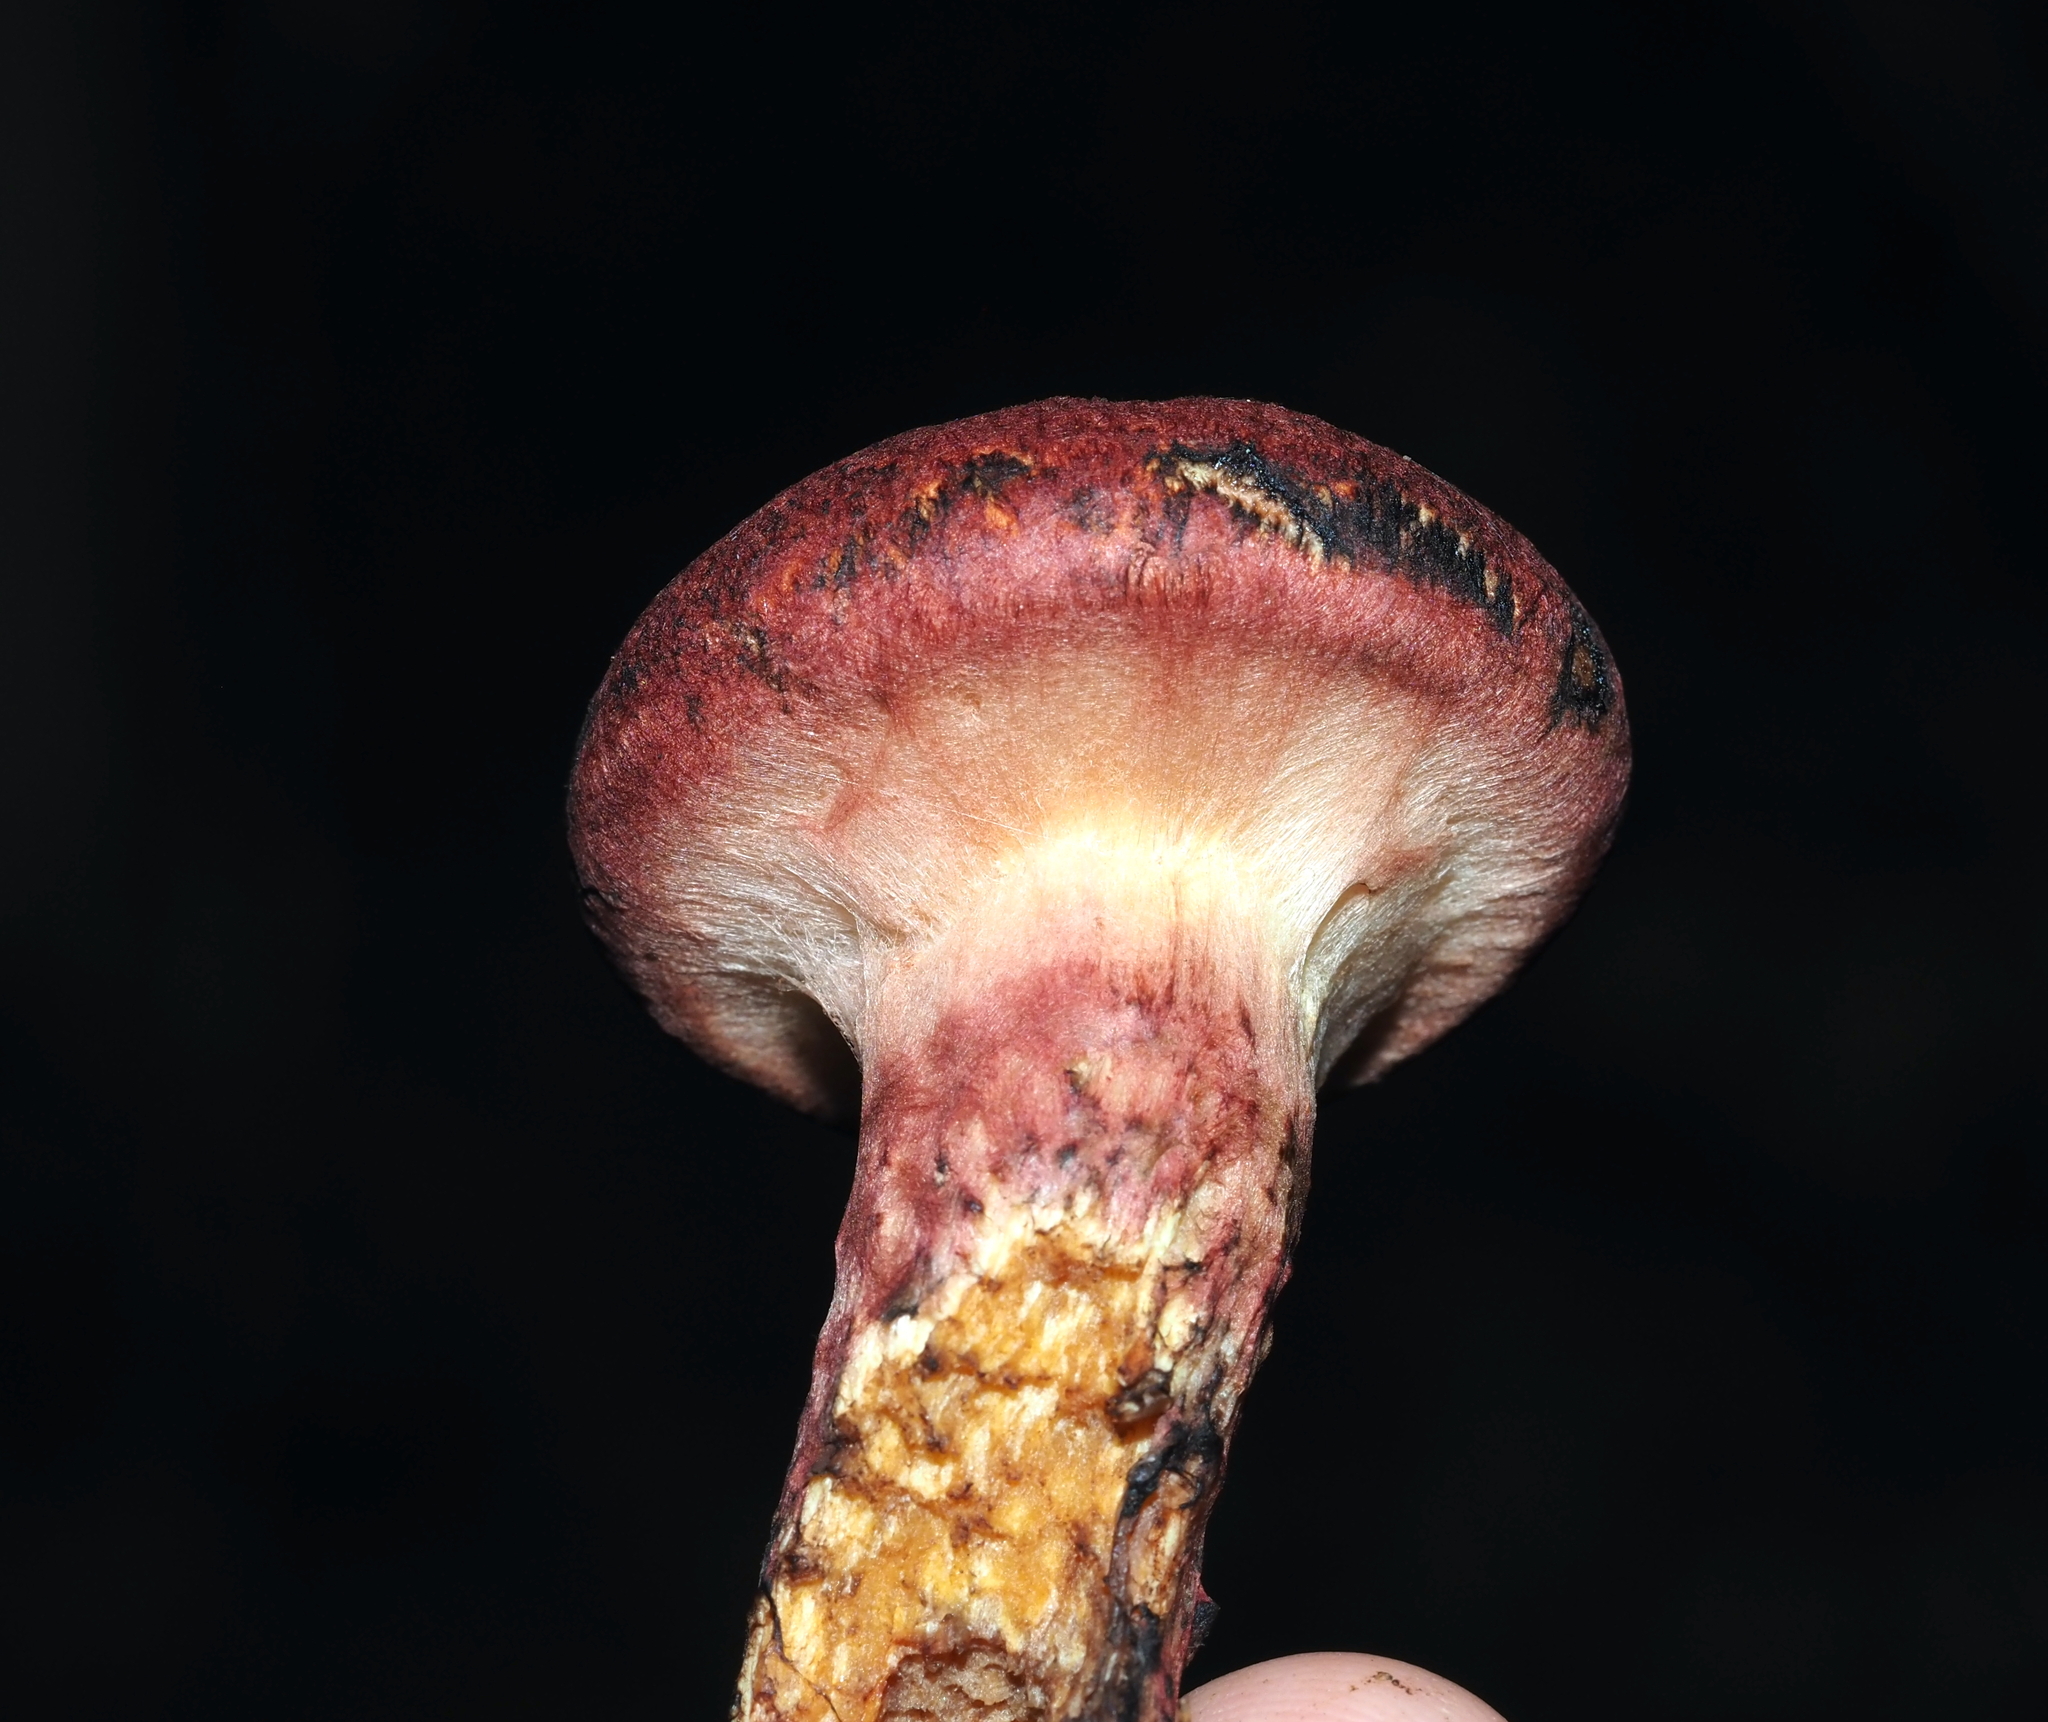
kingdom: Fungi
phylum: Basidiomycota
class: Agaricomycetes
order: Boletales
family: Suillaceae
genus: Suillus
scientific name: Suillus spraguei
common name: Painted suillus
